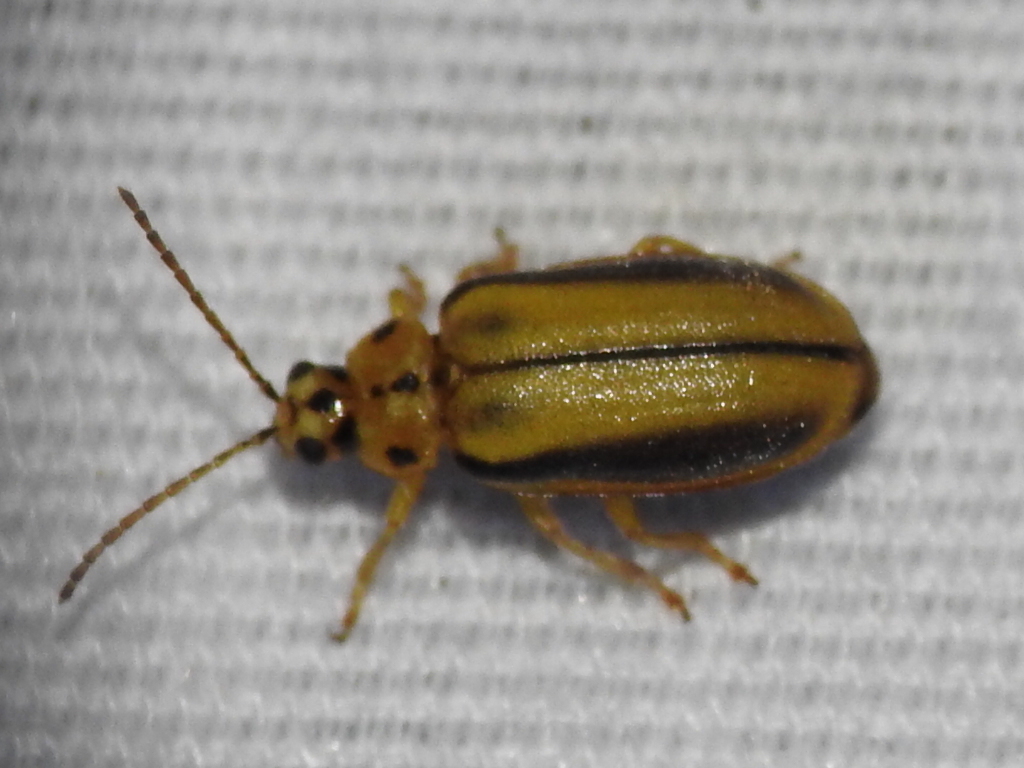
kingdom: Animalia
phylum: Arthropoda
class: Insecta
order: Coleoptera
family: Chrysomelidae
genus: Xanthogaleruca
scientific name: Xanthogaleruca luteola
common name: Elm leaf beetle
